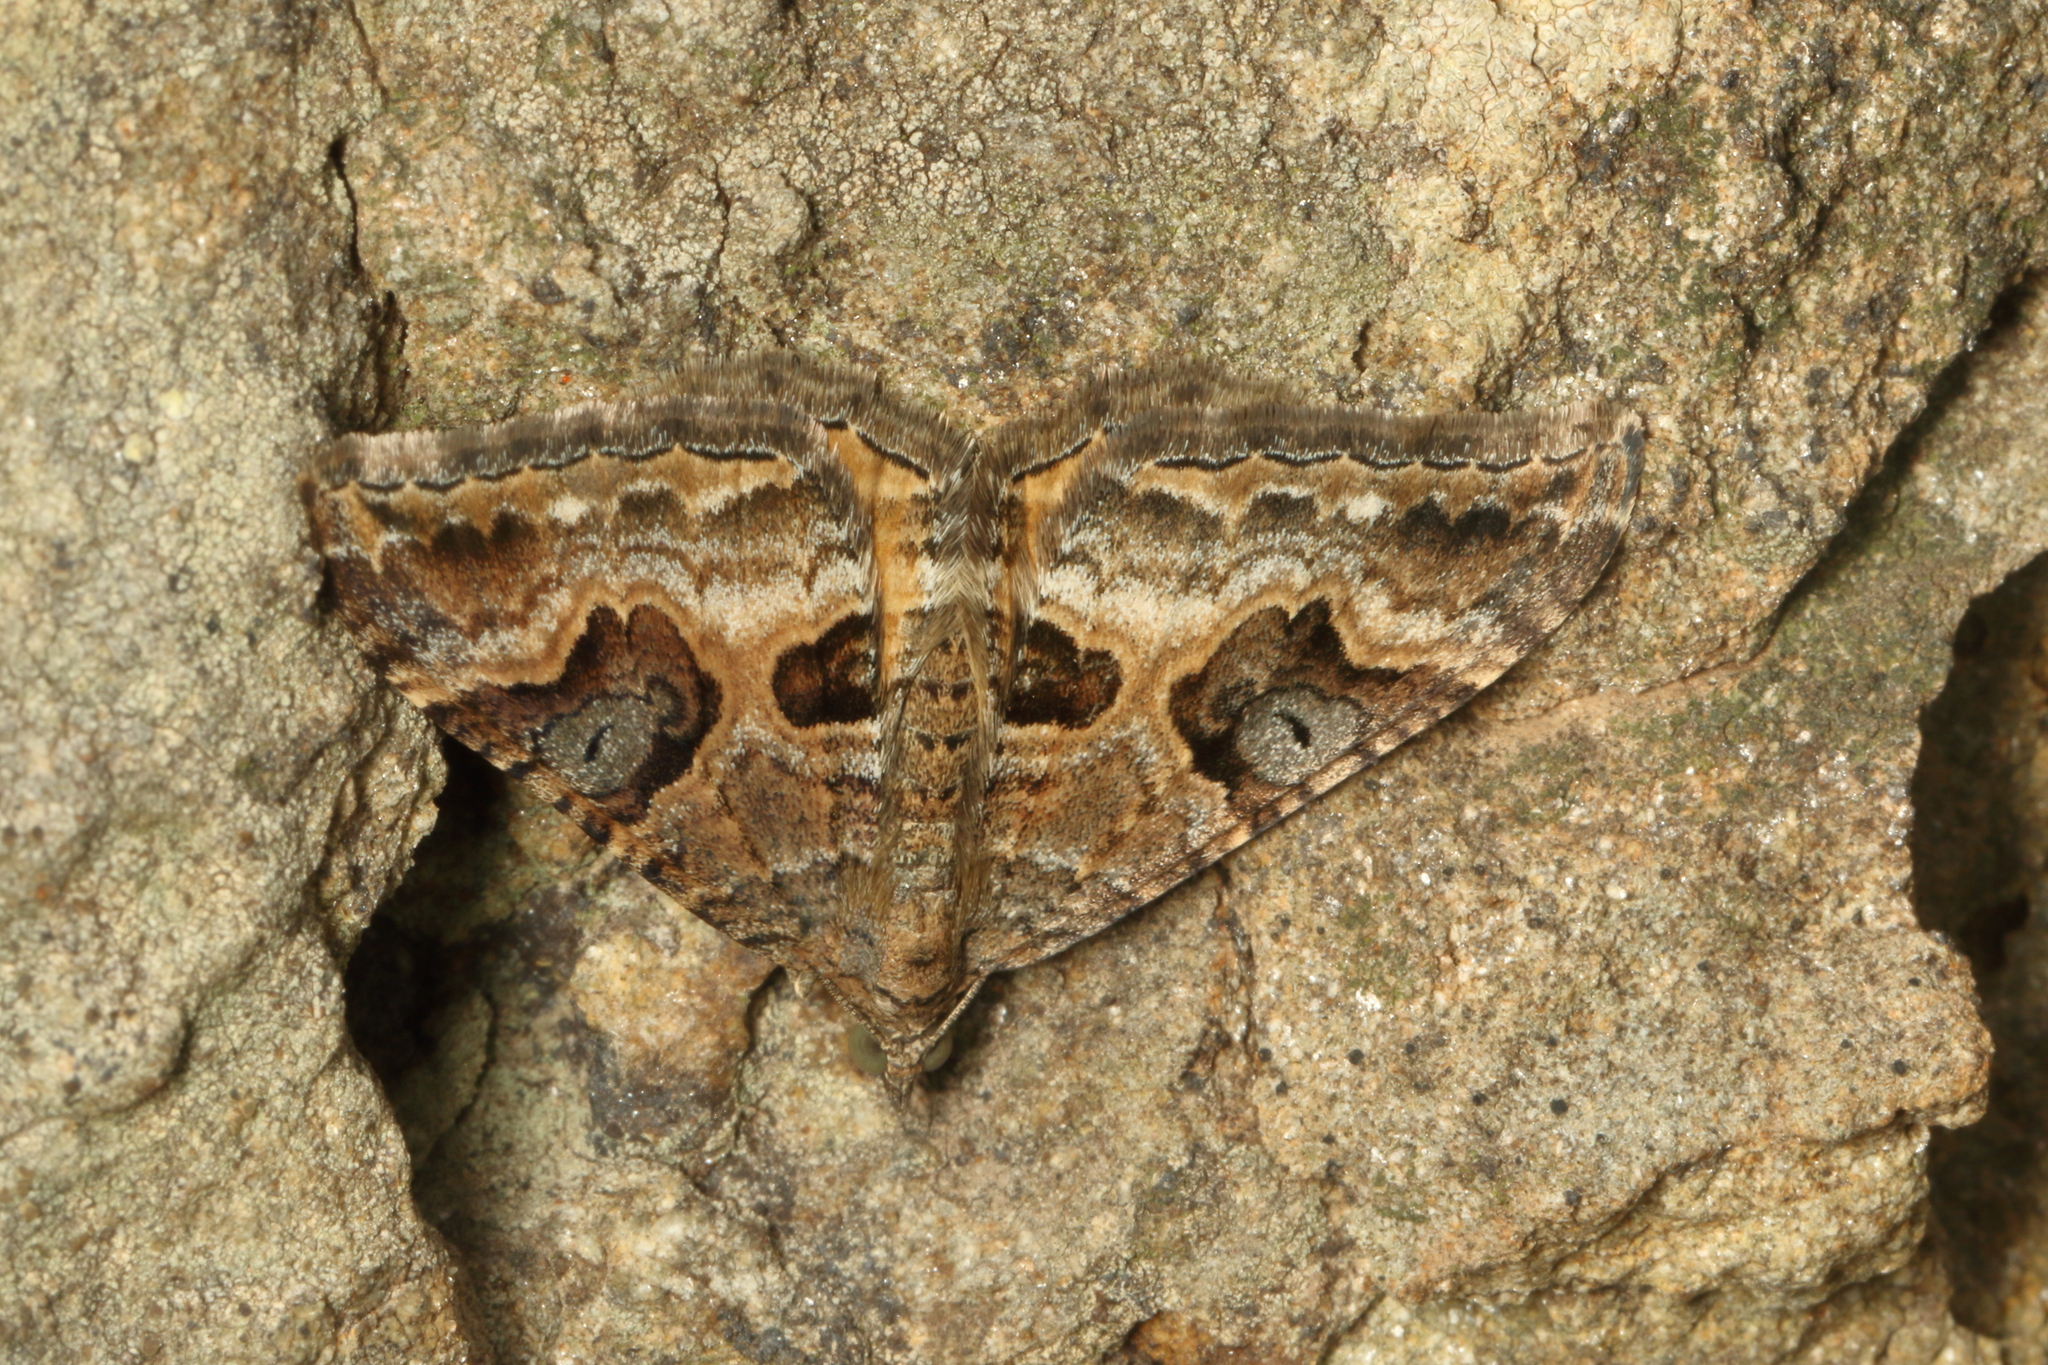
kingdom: Animalia
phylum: Arthropoda
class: Insecta
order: Lepidoptera
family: Geometridae
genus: Hydriomena
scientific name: Hydriomena deltoidata
